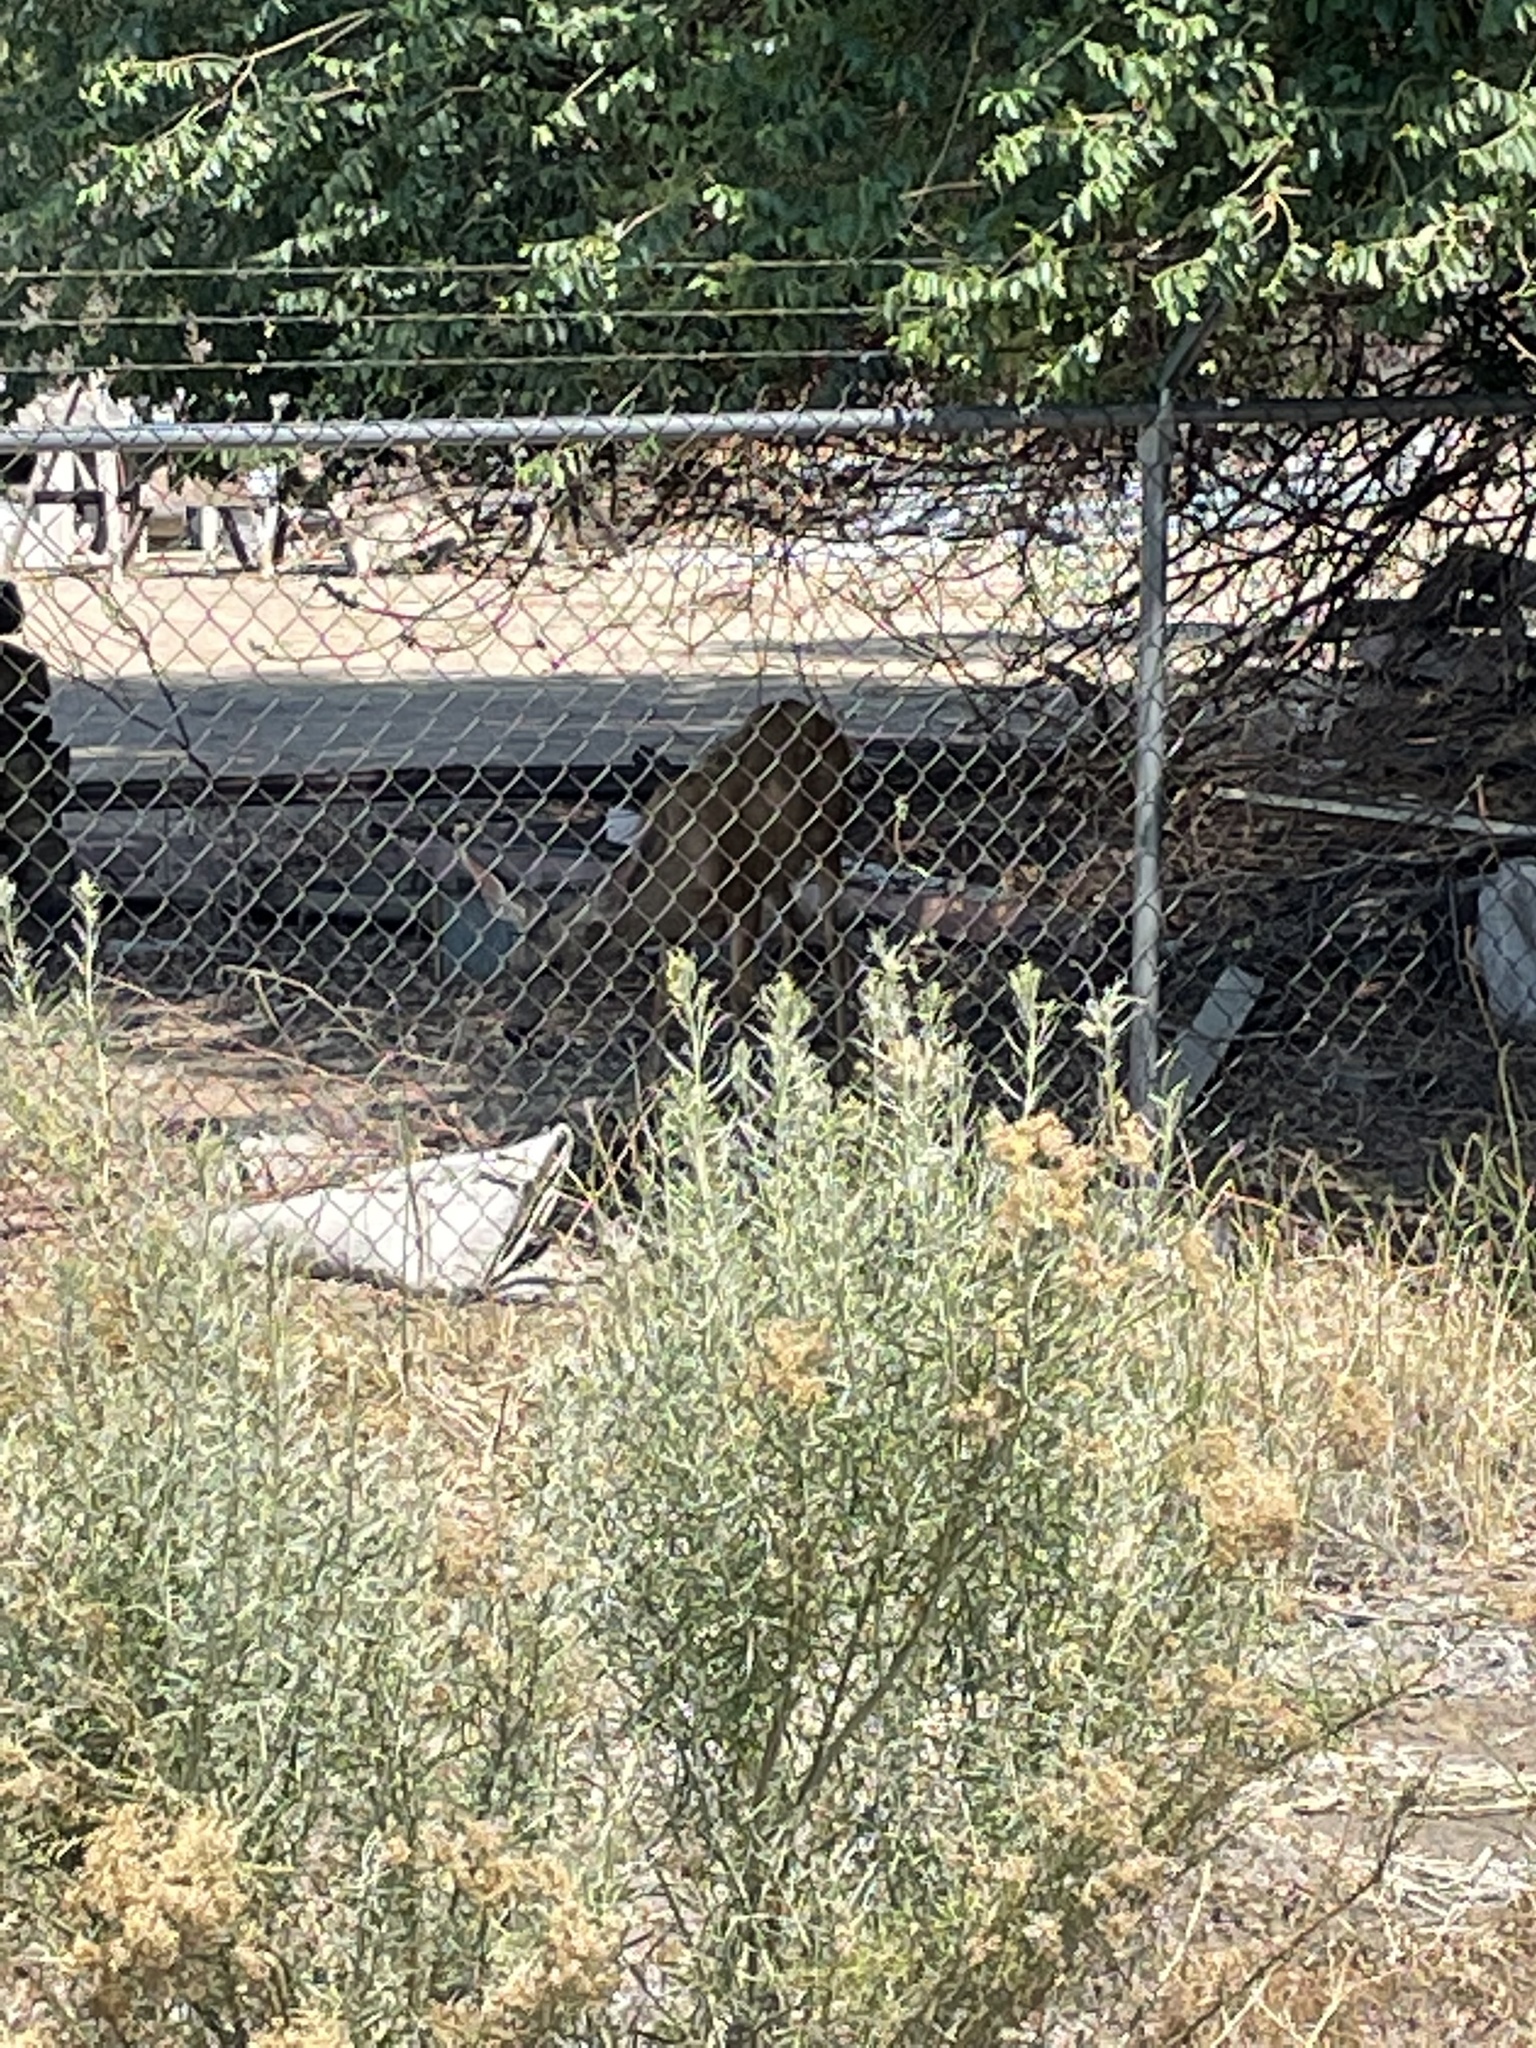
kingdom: Animalia
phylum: Chordata
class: Mammalia
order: Artiodactyla
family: Cervidae
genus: Odocoileus
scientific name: Odocoileus hemionus
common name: Mule deer
